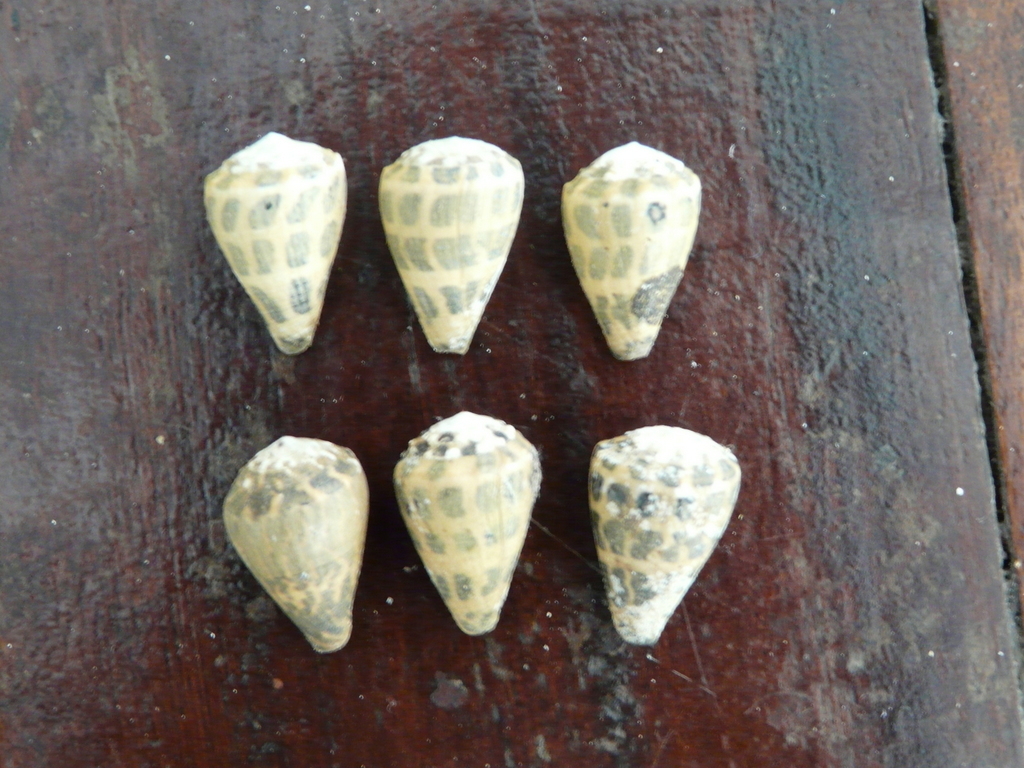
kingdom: Animalia
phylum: Mollusca
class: Gastropoda
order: Neogastropoda
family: Conidae
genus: Conus
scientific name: Conus ebraeus
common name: Hebrew cone
